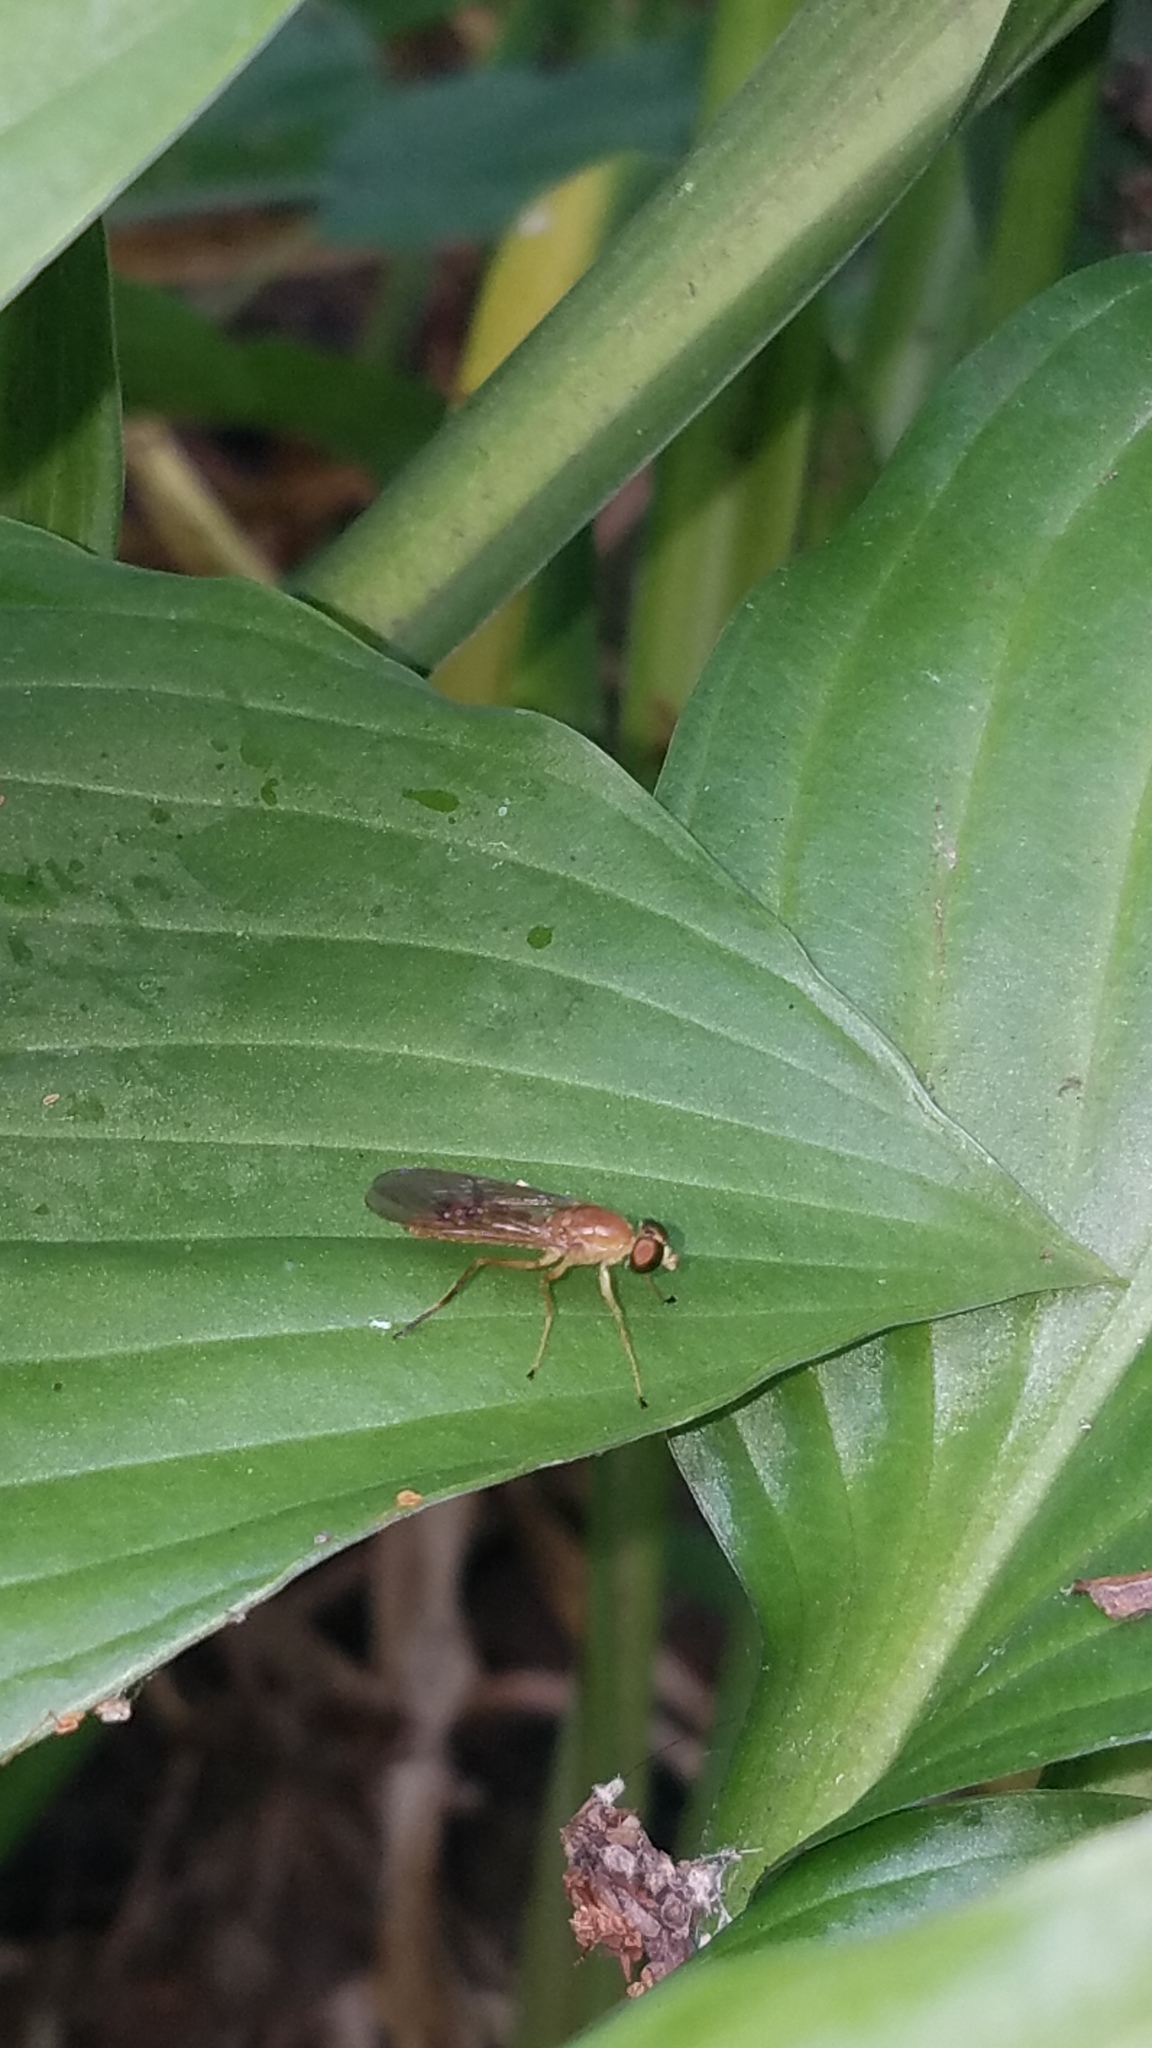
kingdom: Animalia
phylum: Arthropoda
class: Insecta
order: Diptera
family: Stratiomyidae
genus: Ptecticus
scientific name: Ptecticus trivittatus
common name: Compost fly
